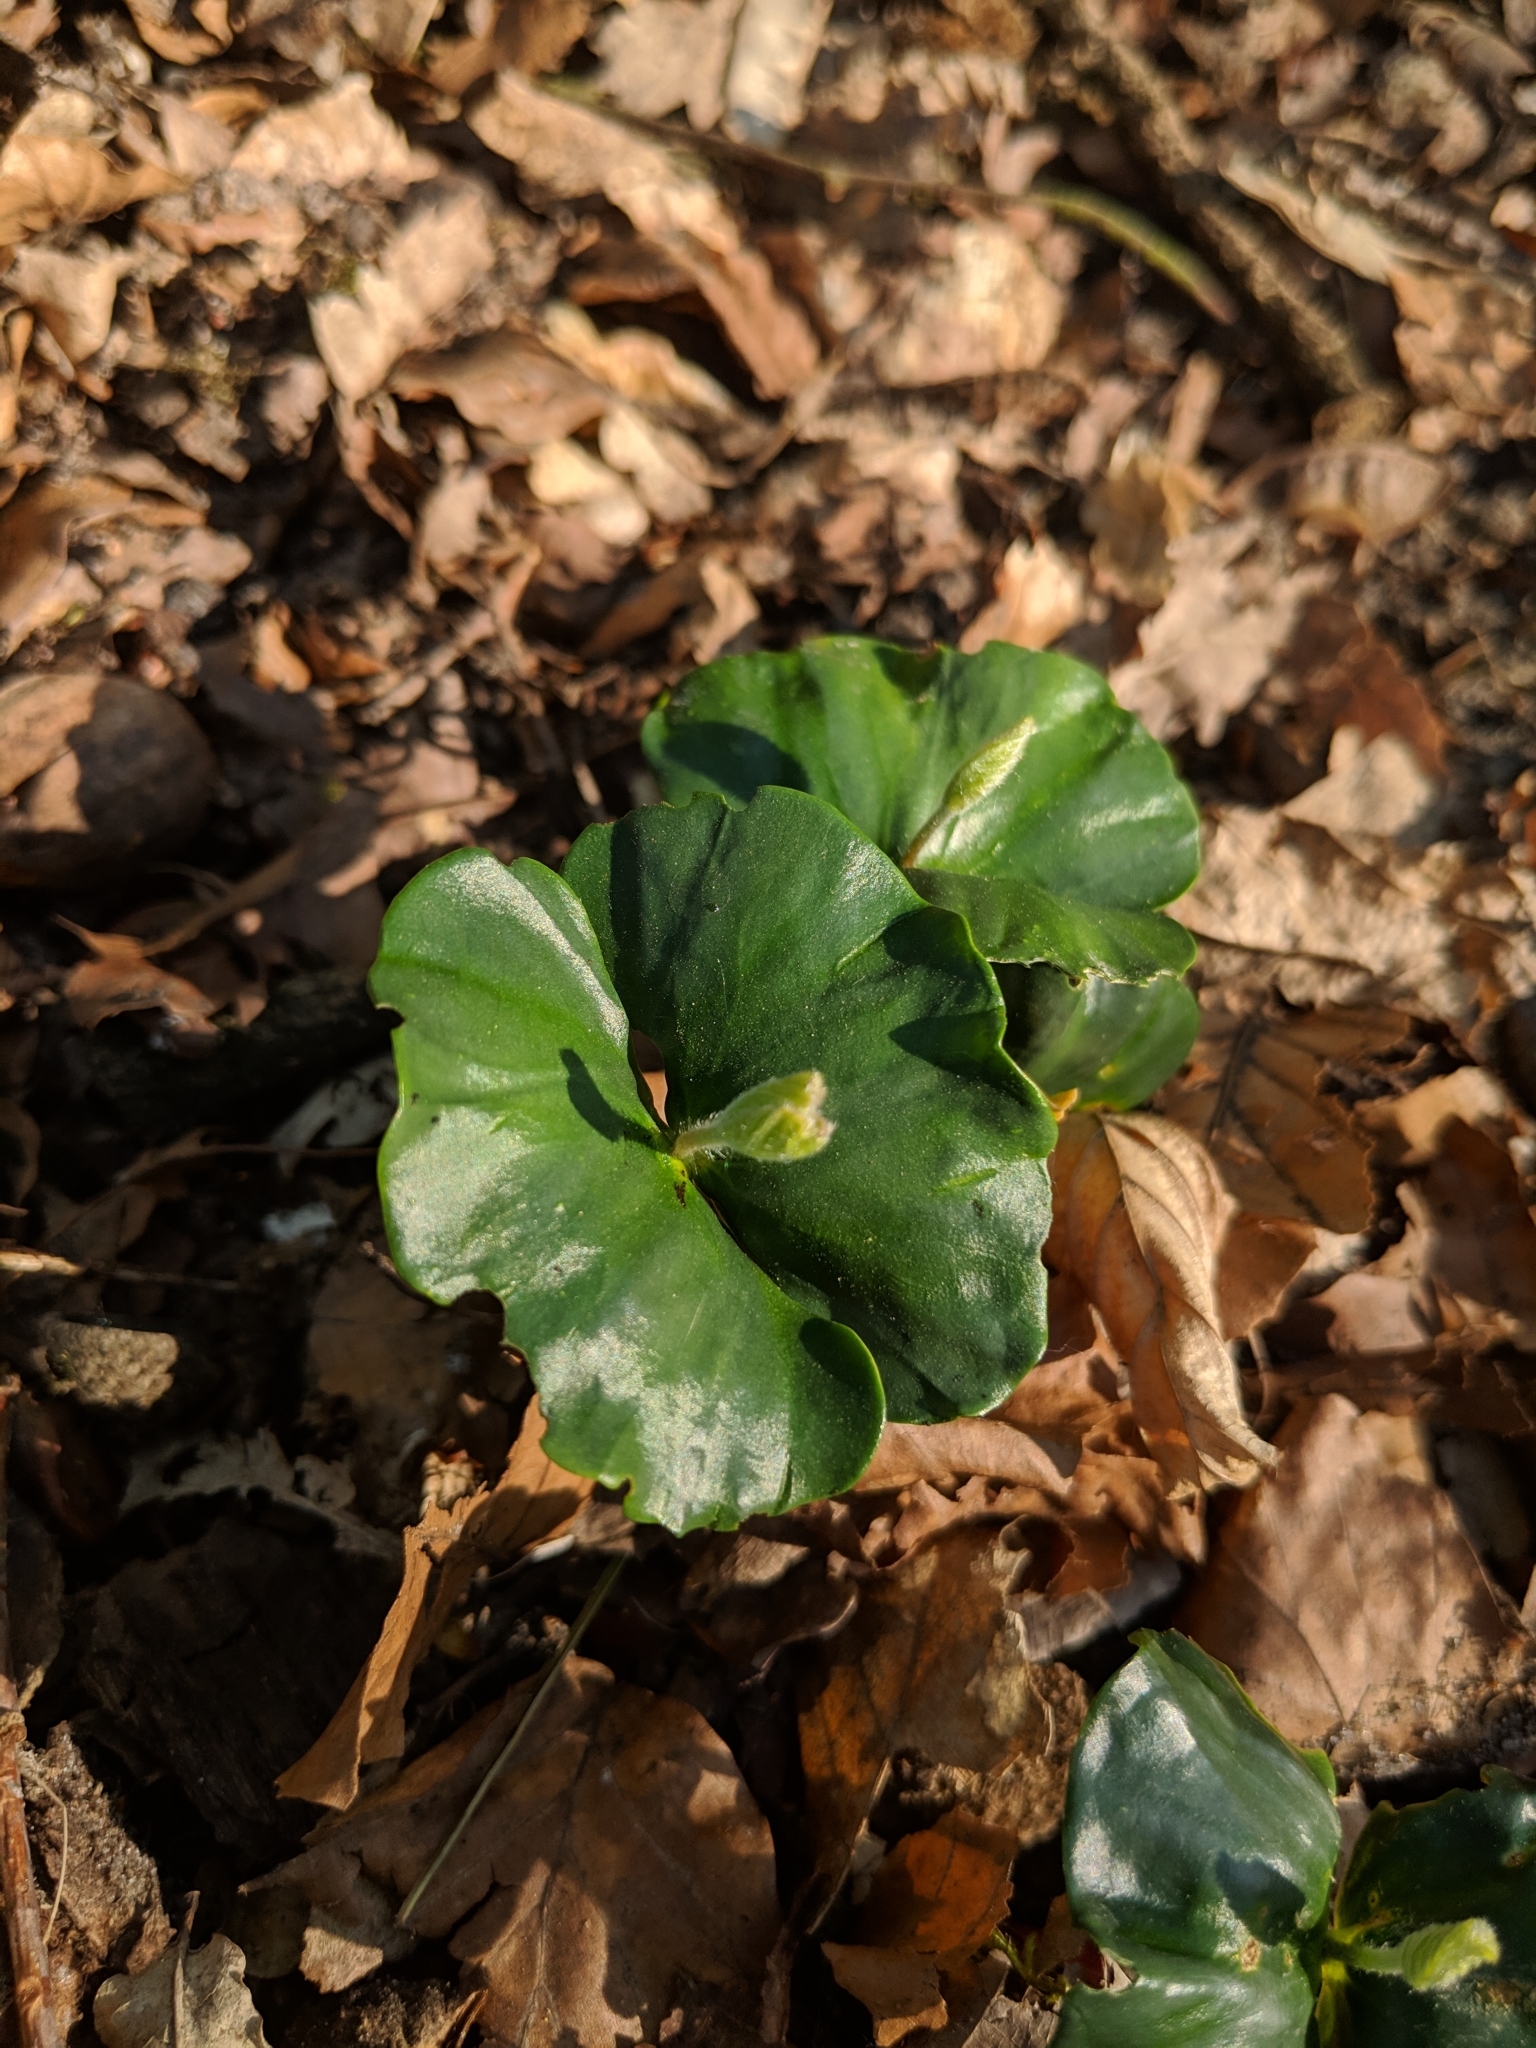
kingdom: Plantae
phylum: Tracheophyta
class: Magnoliopsida
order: Fagales
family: Fagaceae
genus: Fagus
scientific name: Fagus sylvatica
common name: Beech
